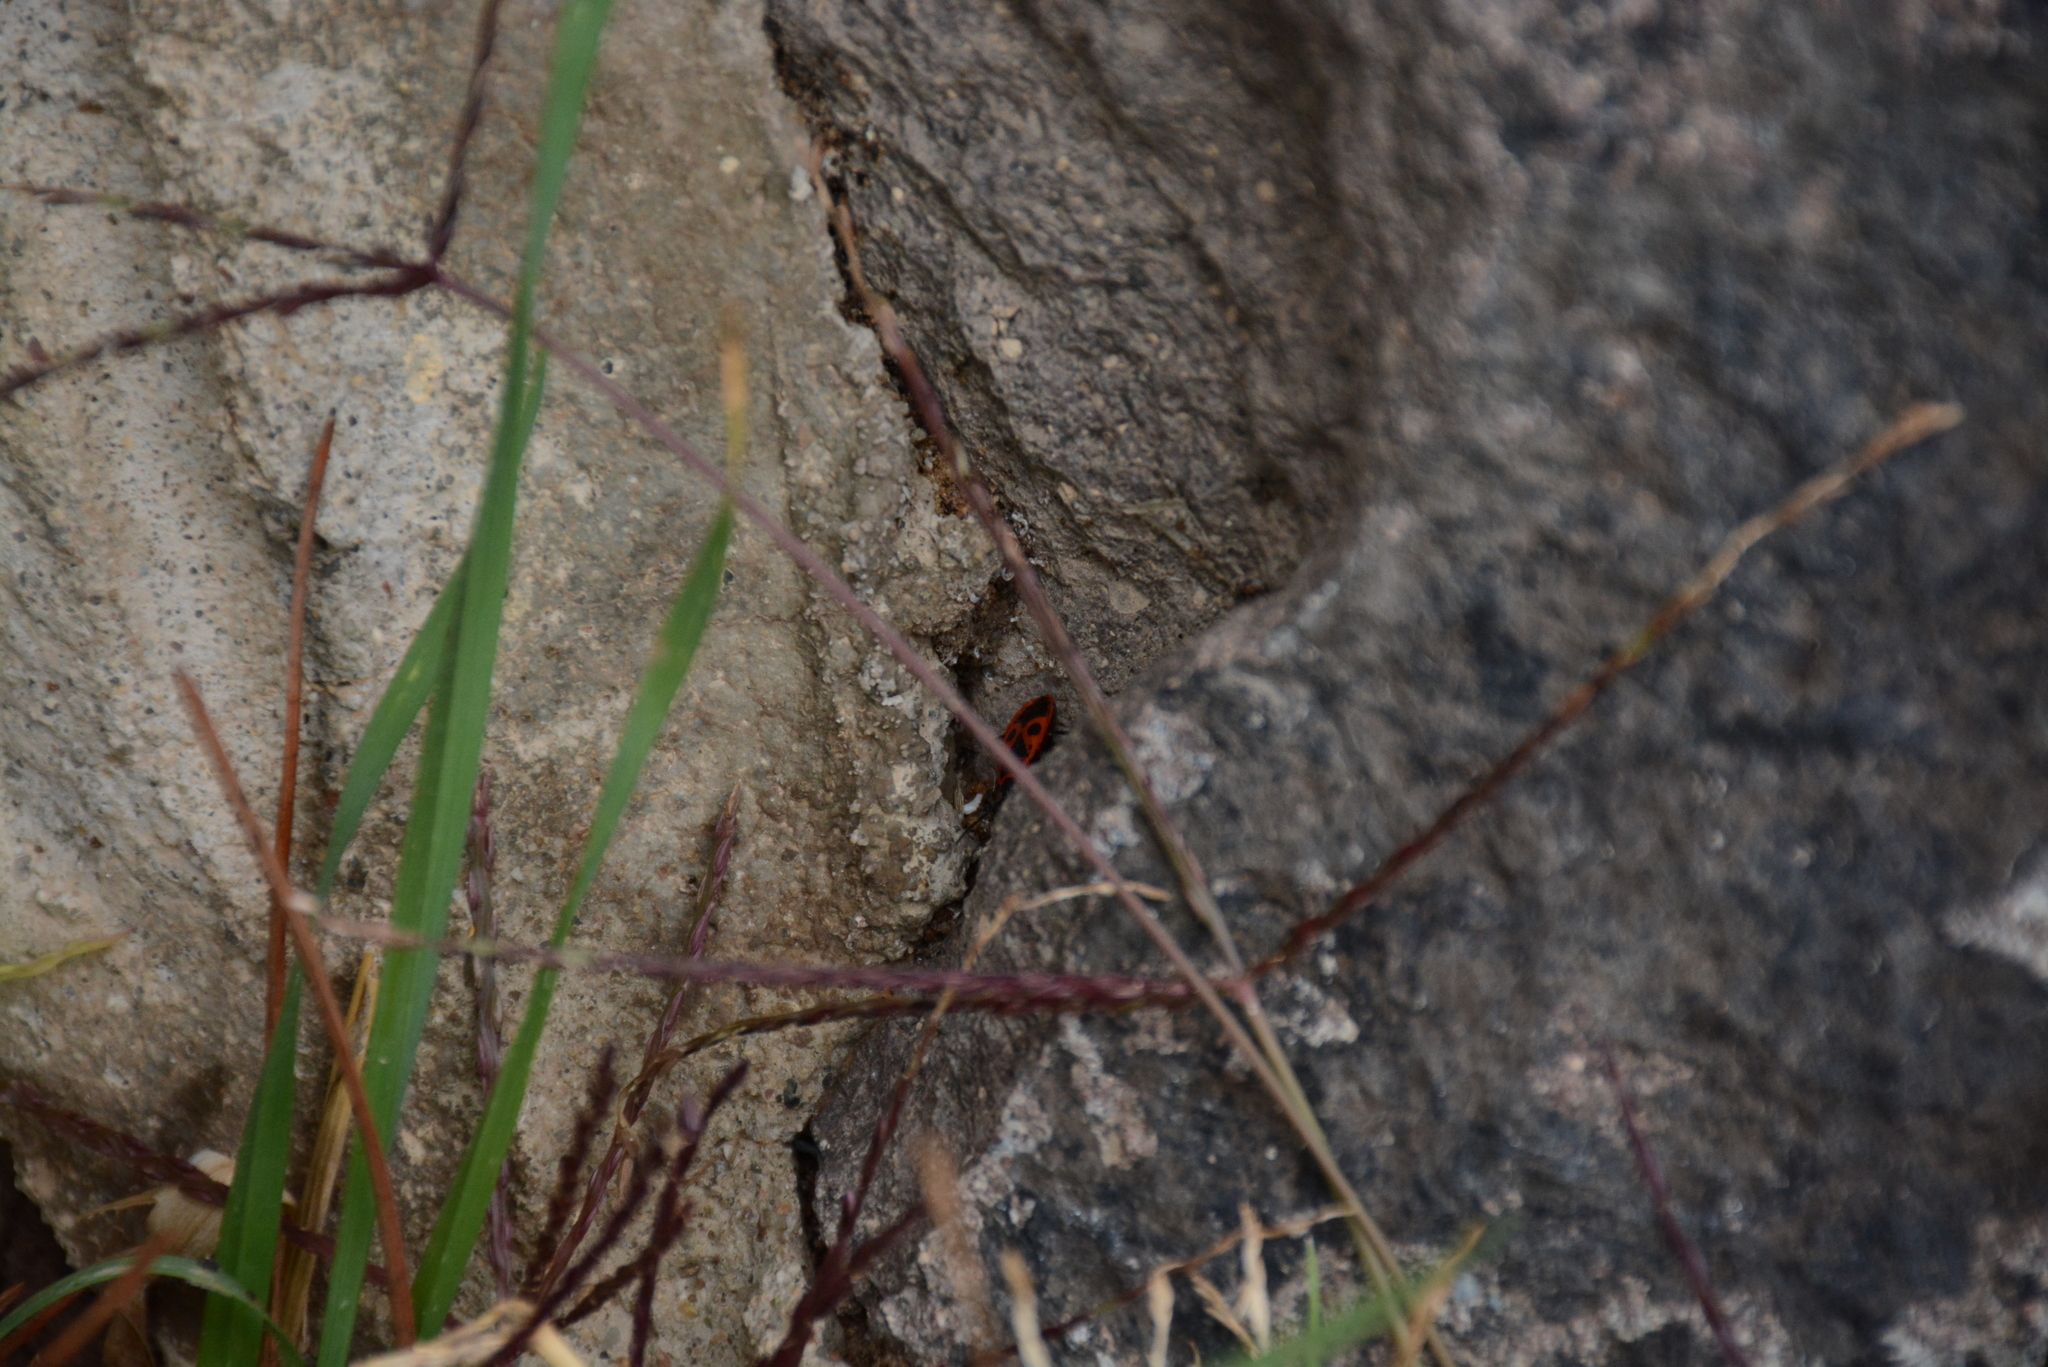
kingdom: Animalia
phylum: Arthropoda
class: Insecta
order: Hemiptera
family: Pyrrhocoridae
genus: Pyrrhocoris
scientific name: Pyrrhocoris apterus
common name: Firebug
